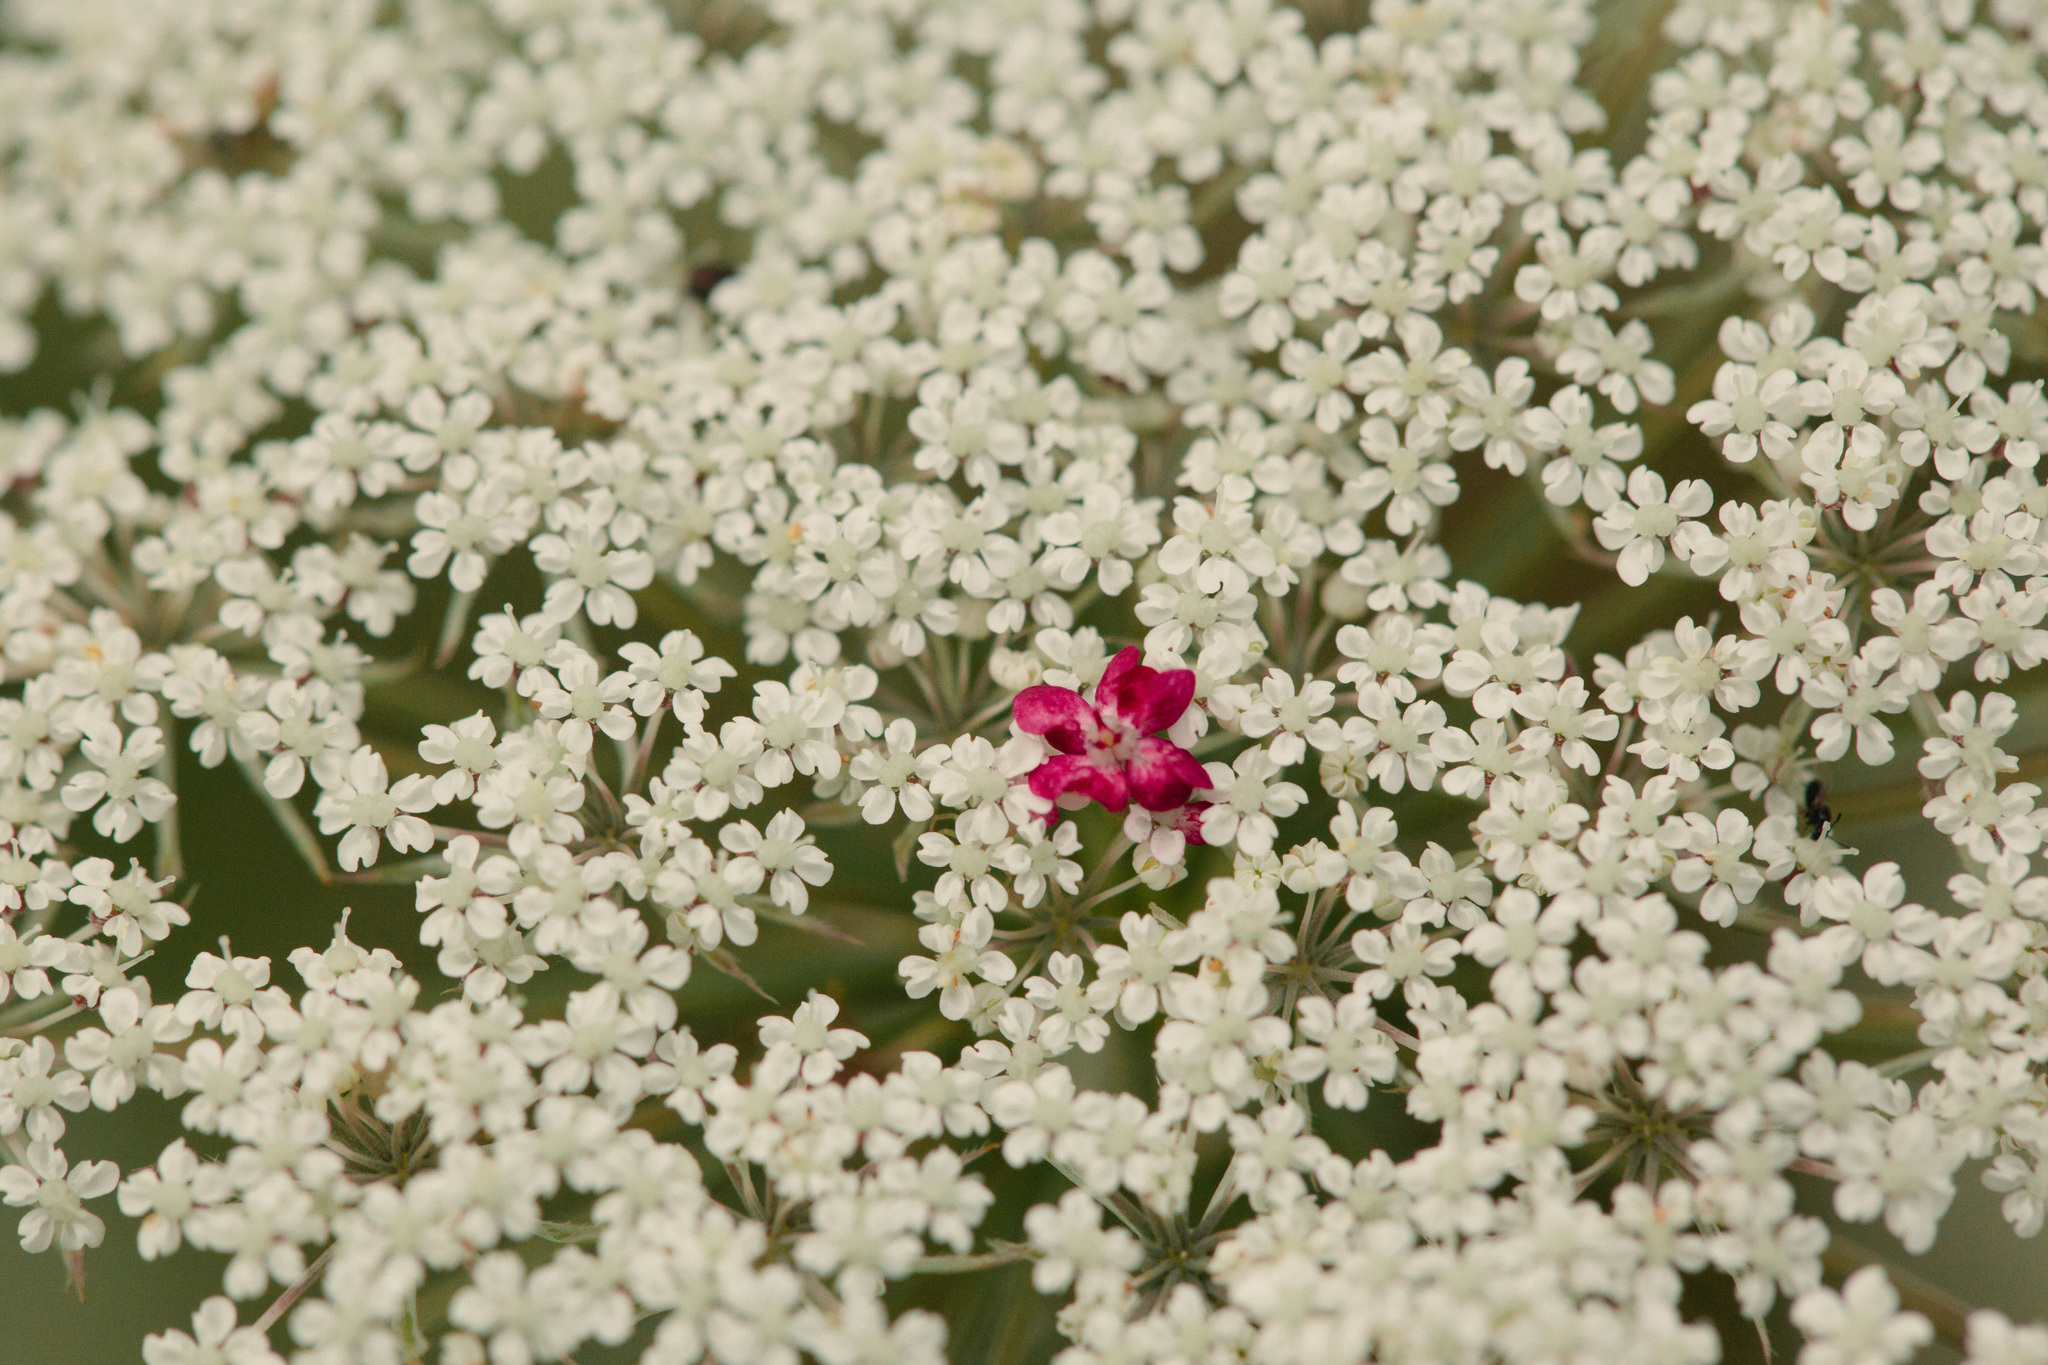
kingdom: Plantae
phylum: Tracheophyta
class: Magnoliopsida
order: Apiales
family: Apiaceae
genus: Daucus
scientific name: Daucus carota
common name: Wild carrot
